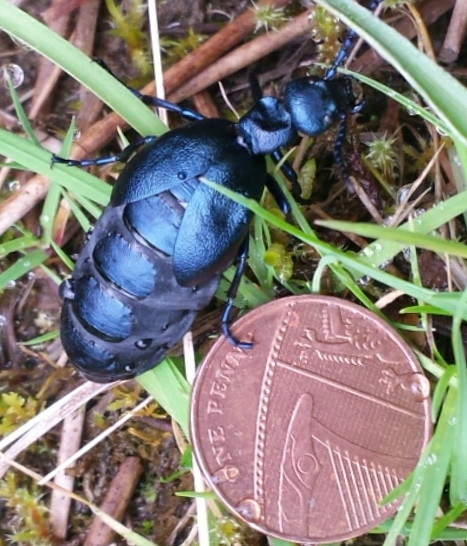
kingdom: Animalia
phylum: Arthropoda
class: Insecta
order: Coleoptera
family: Meloidae
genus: Meloe
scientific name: Meloe violaceus
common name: Violet oil-beetle
